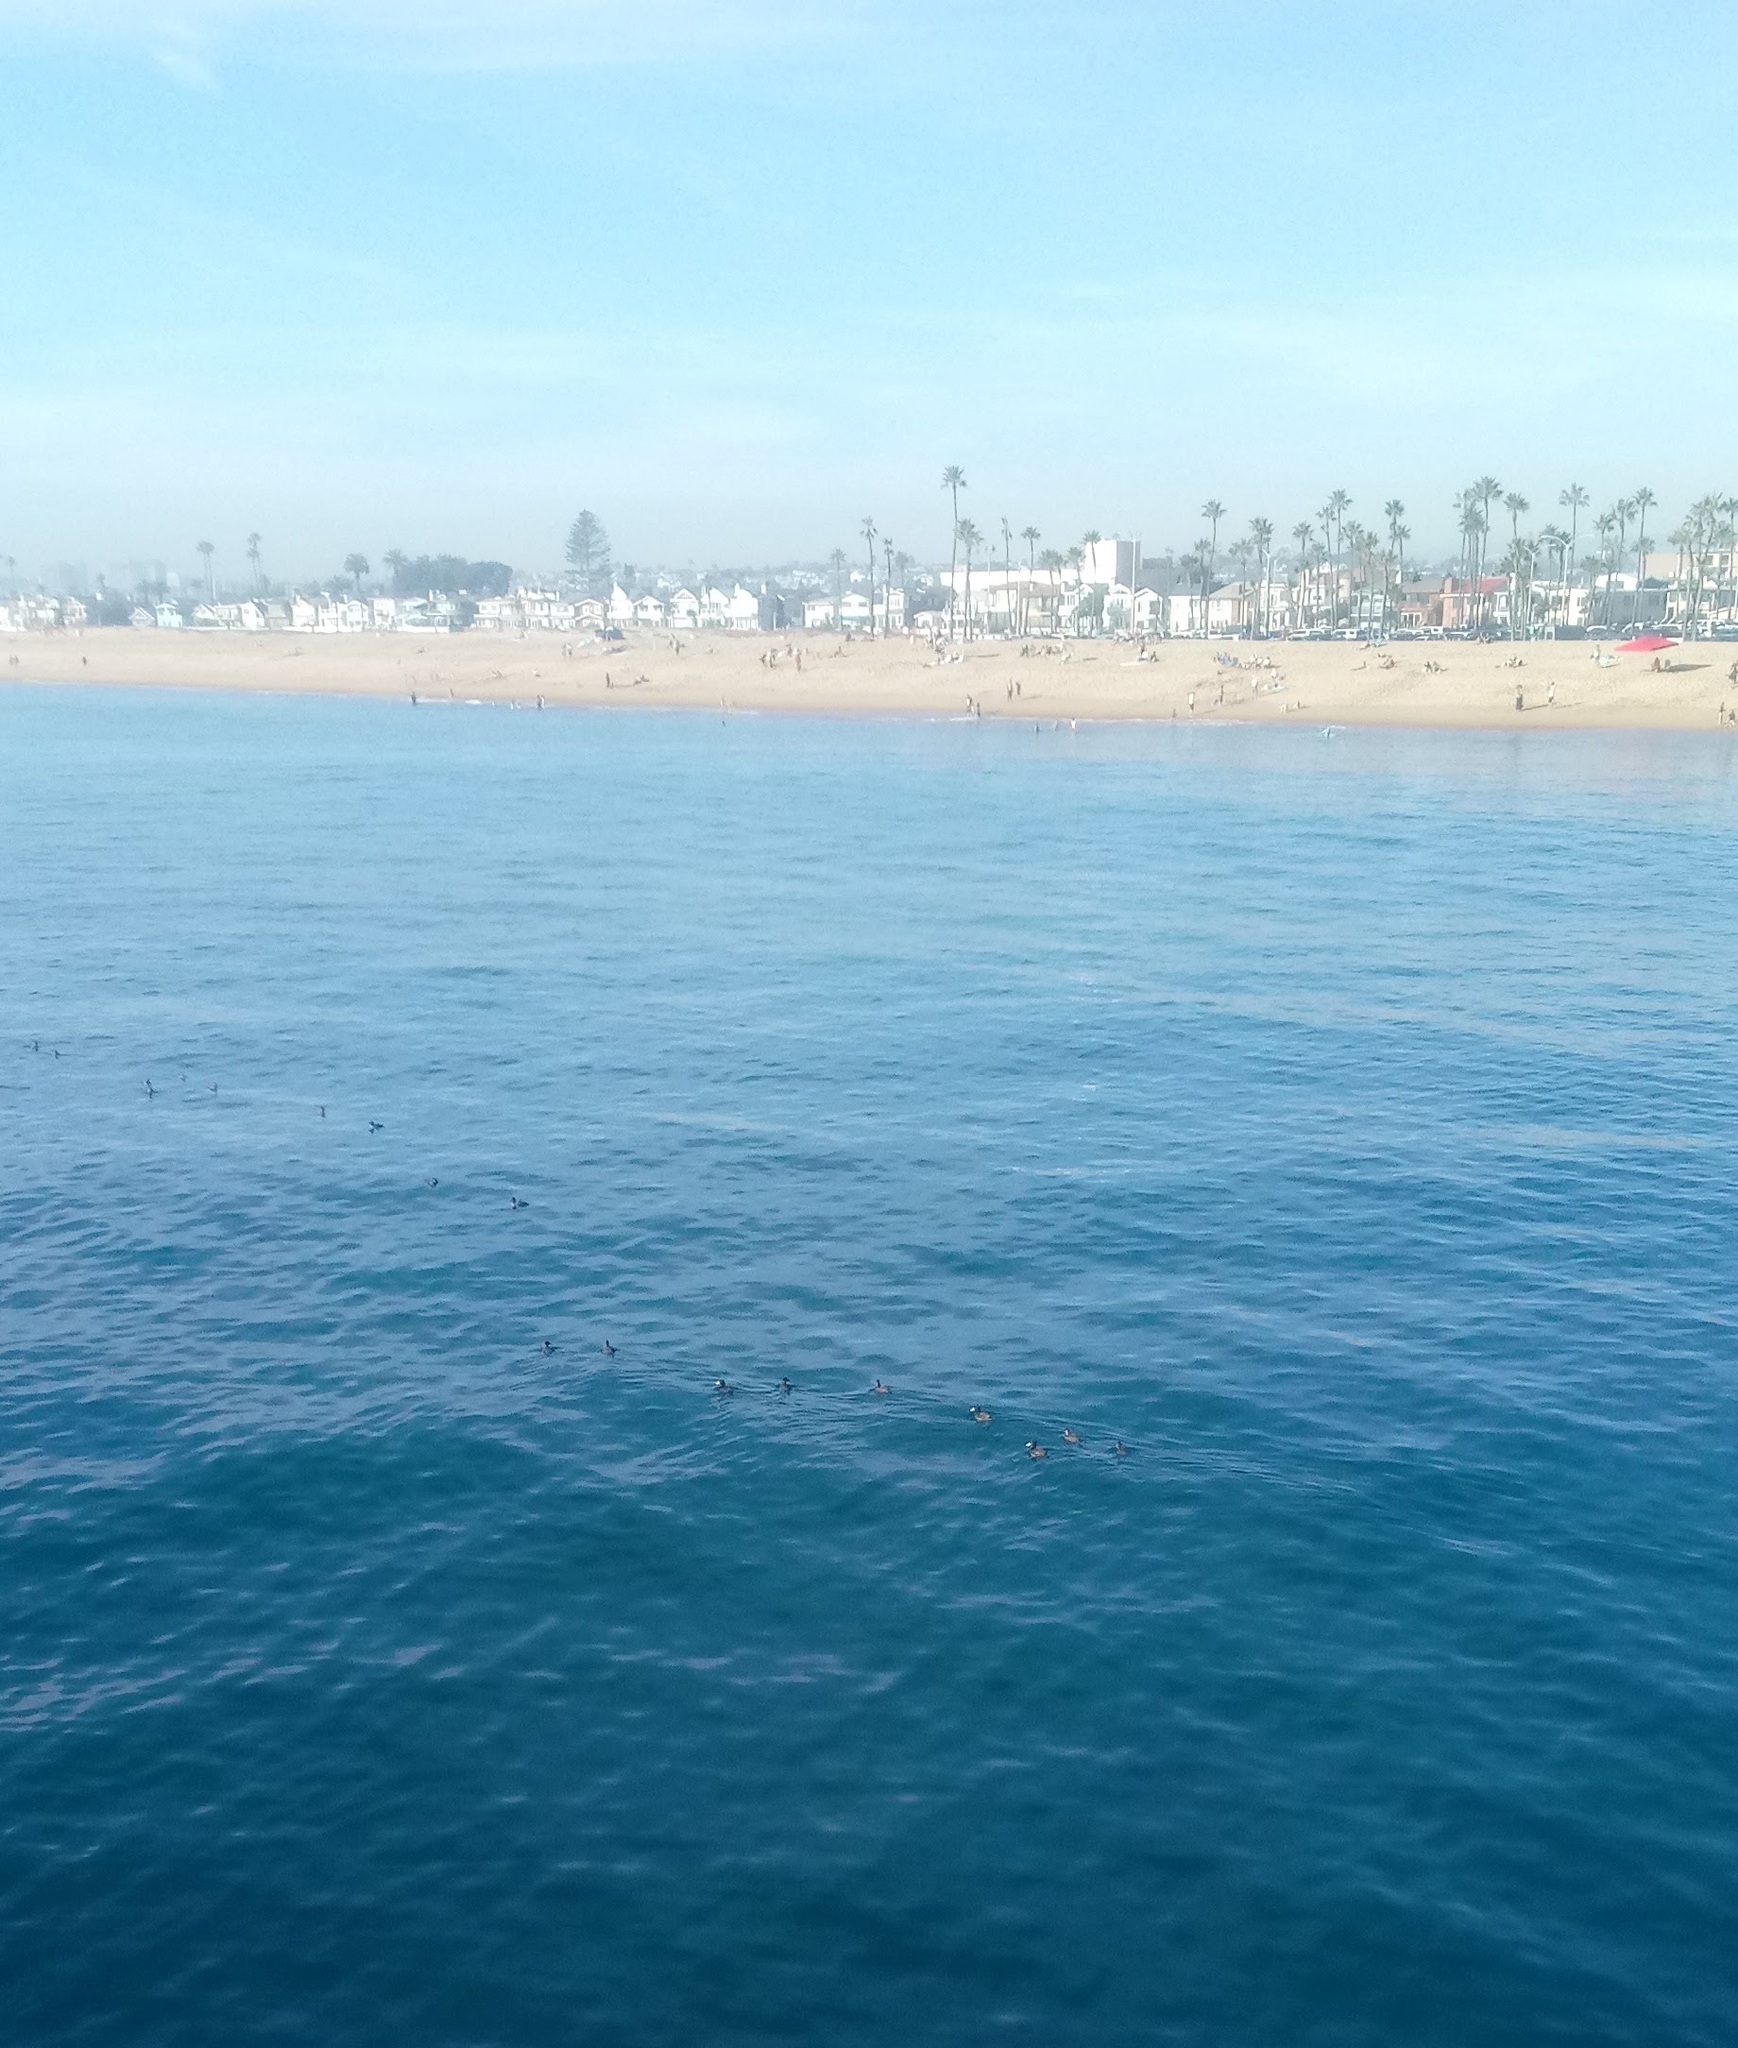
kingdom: Animalia
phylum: Chordata
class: Aves
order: Anseriformes
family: Anatidae
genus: Melanitta
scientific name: Melanitta perspicillata
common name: Surf scoter
